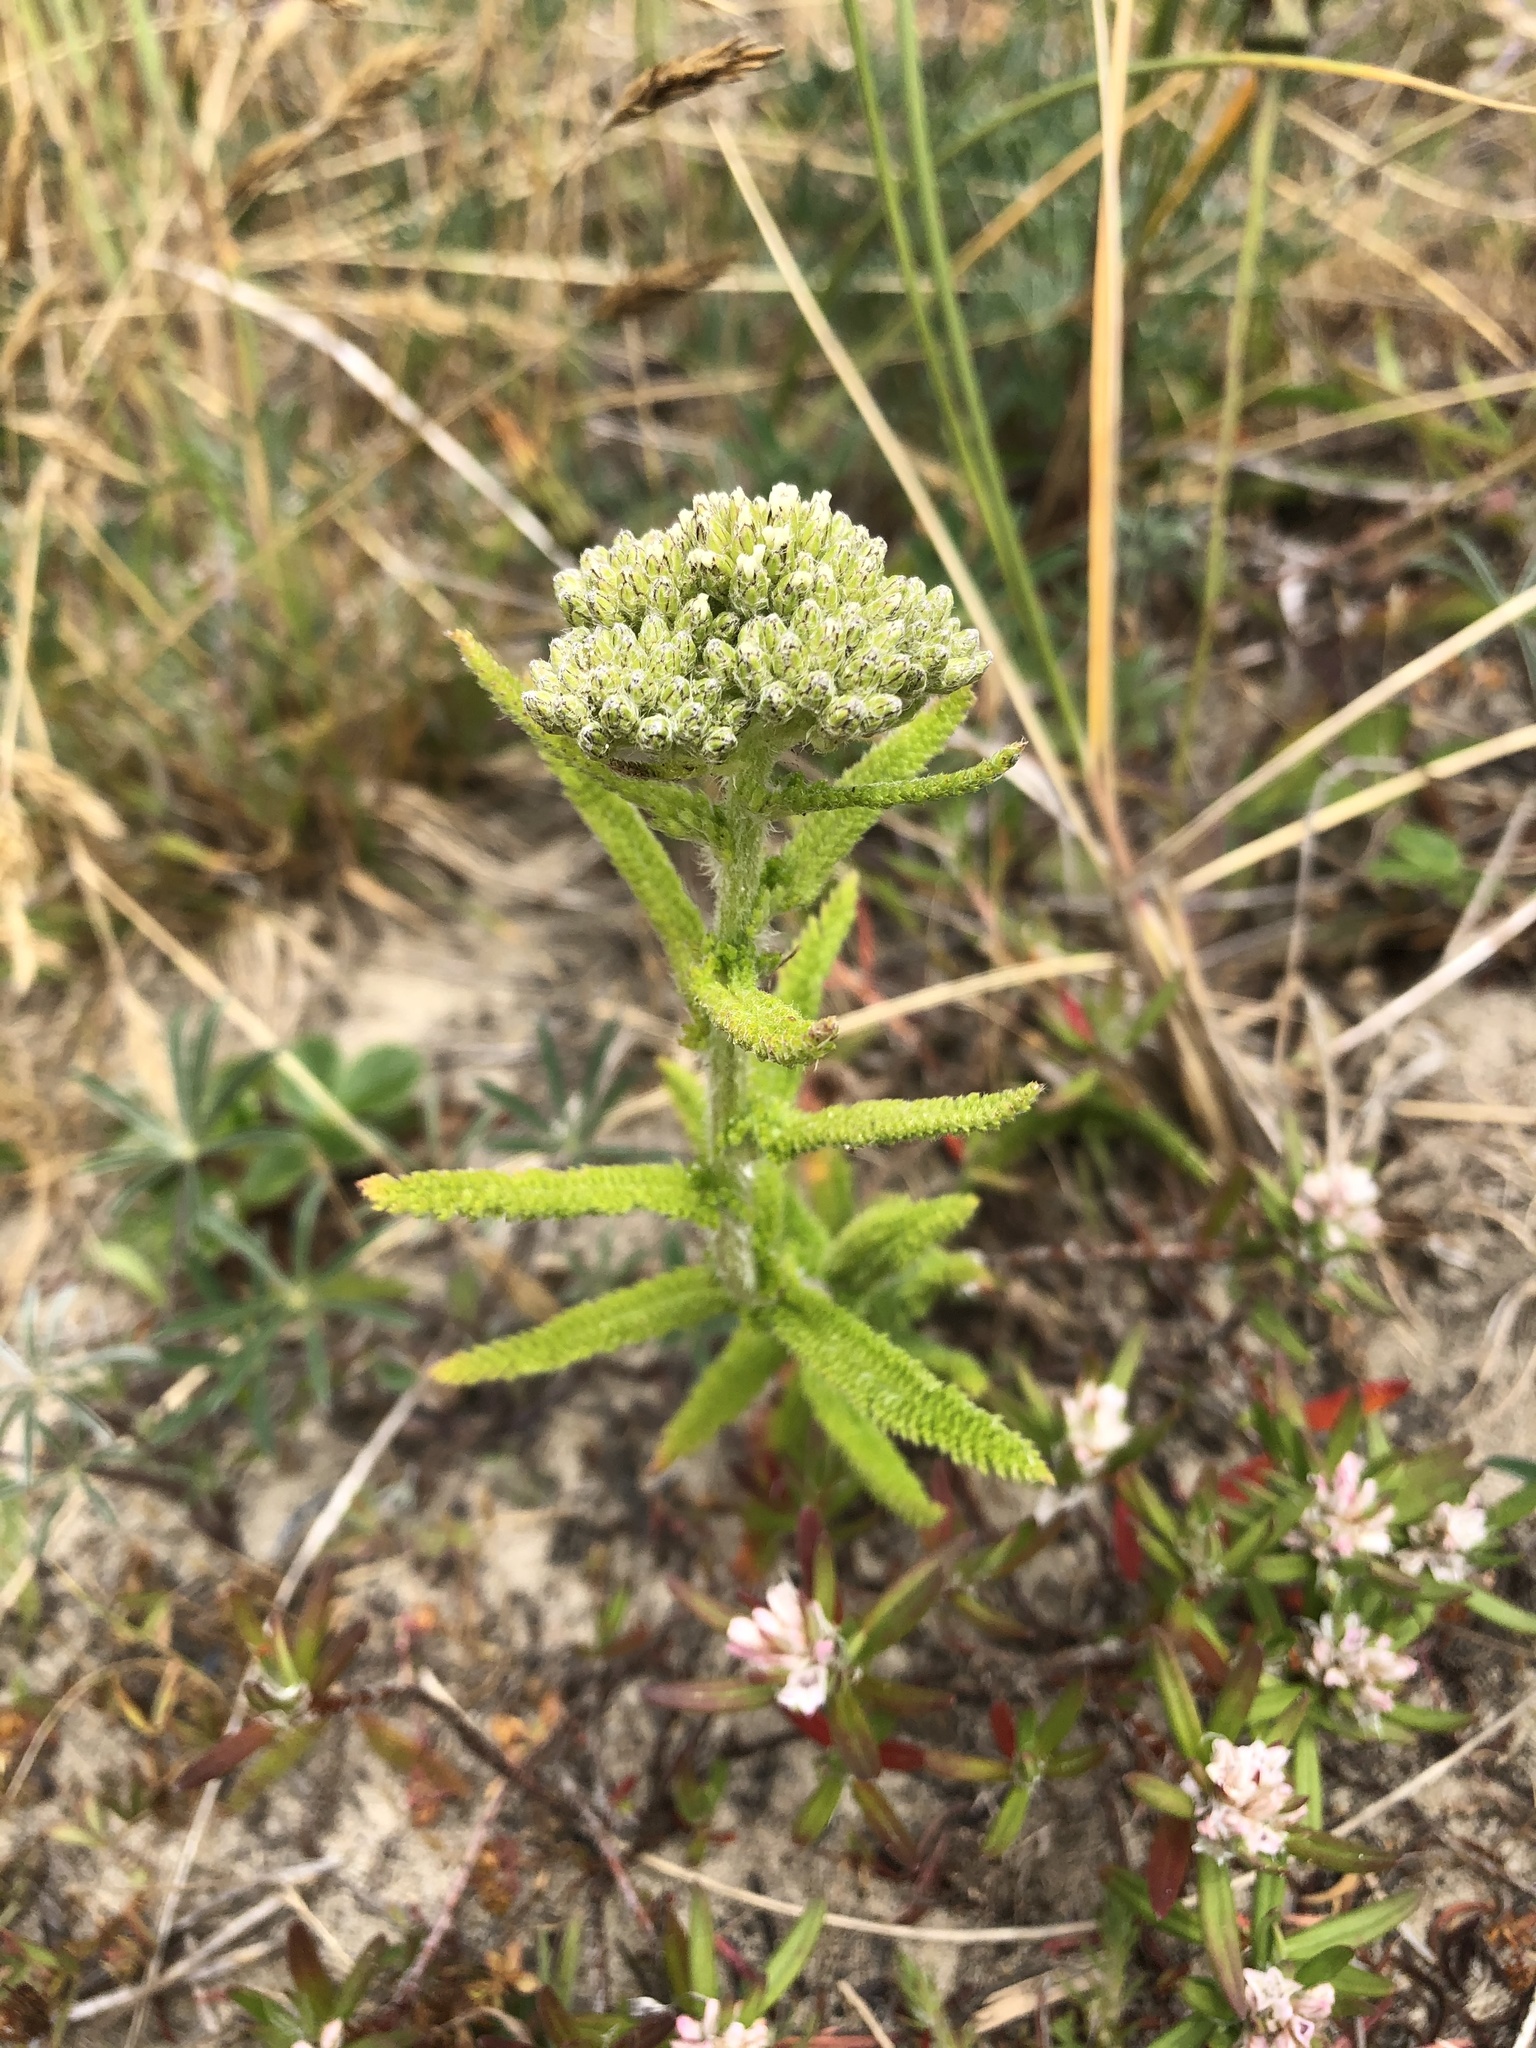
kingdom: Plantae
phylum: Tracheophyta
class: Magnoliopsida
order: Asterales
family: Asteraceae
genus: Achillea
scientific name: Achillea millefolium
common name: Yarrow
